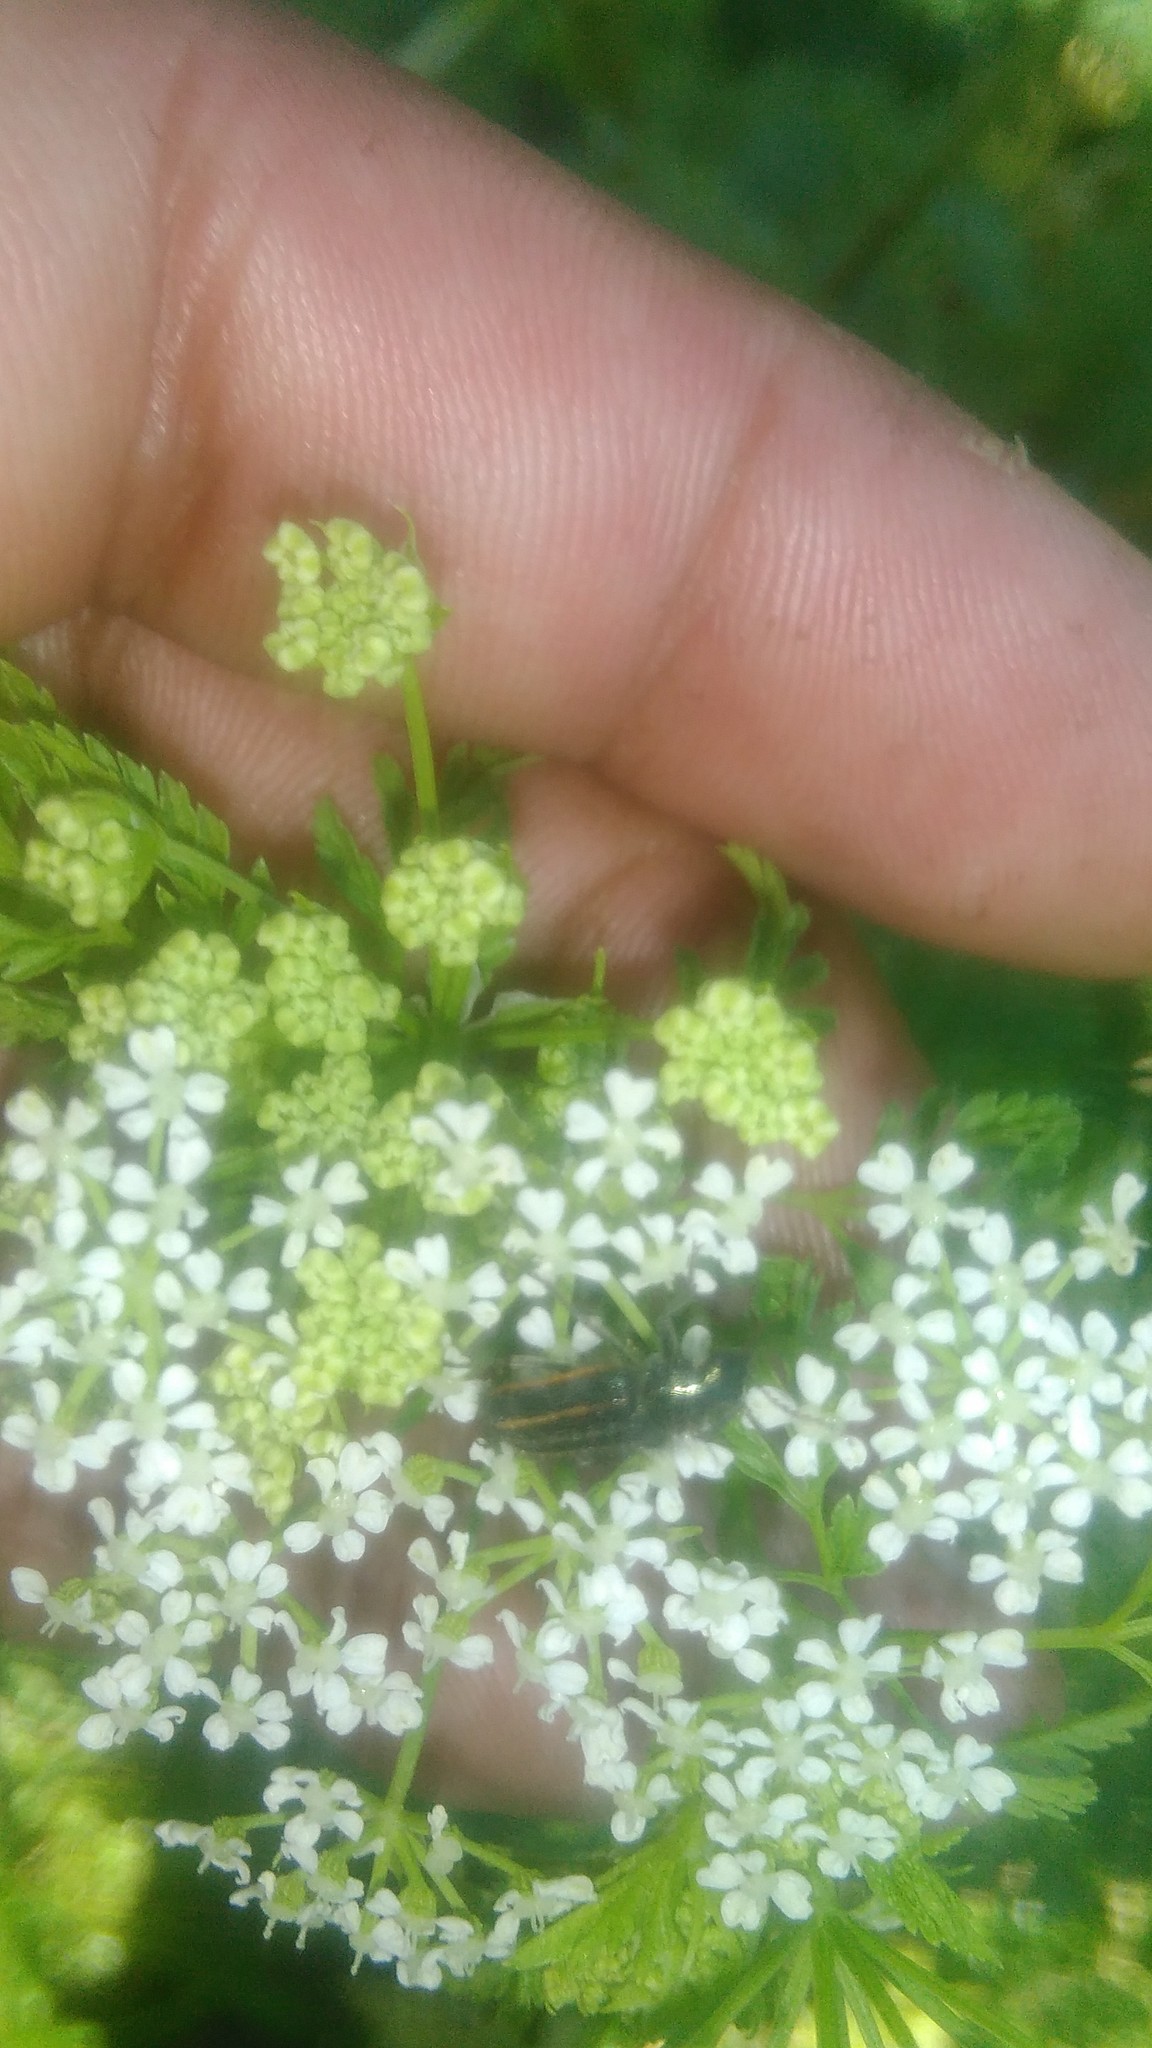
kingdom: Animalia
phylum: Arthropoda
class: Insecta
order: Coleoptera
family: Melyridae
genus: Astylus
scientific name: Astylus
